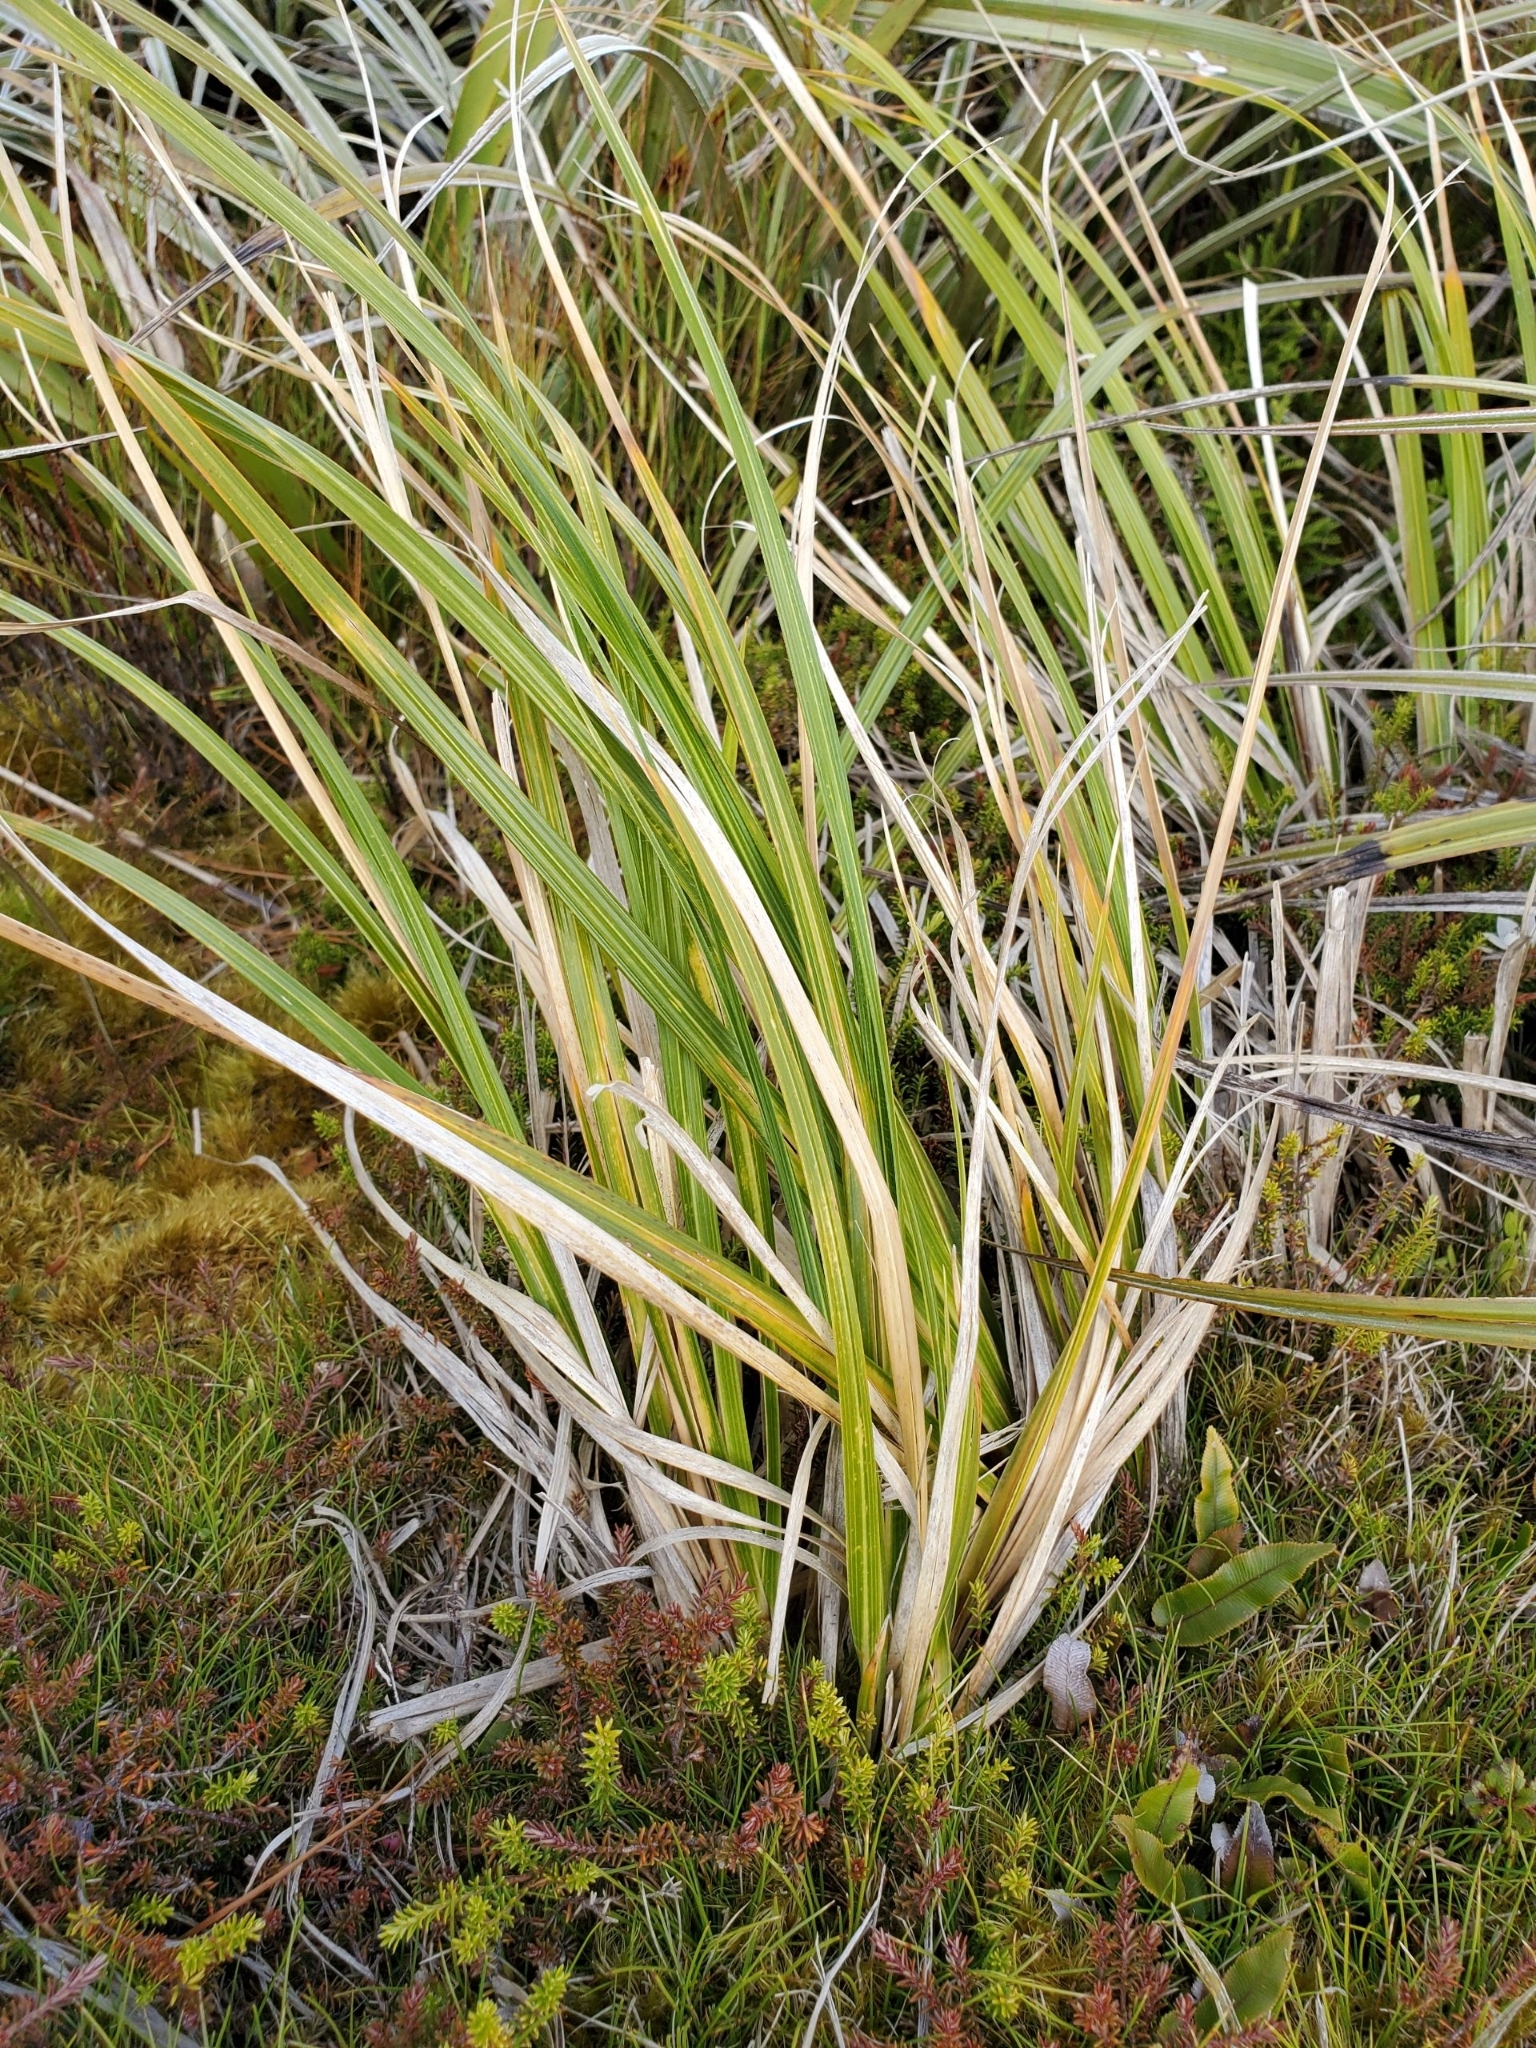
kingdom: Plantae
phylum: Tracheophyta
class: Liliopsida
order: Poales
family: Poaceae
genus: Chionochloa
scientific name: Chionochloa conspicua
